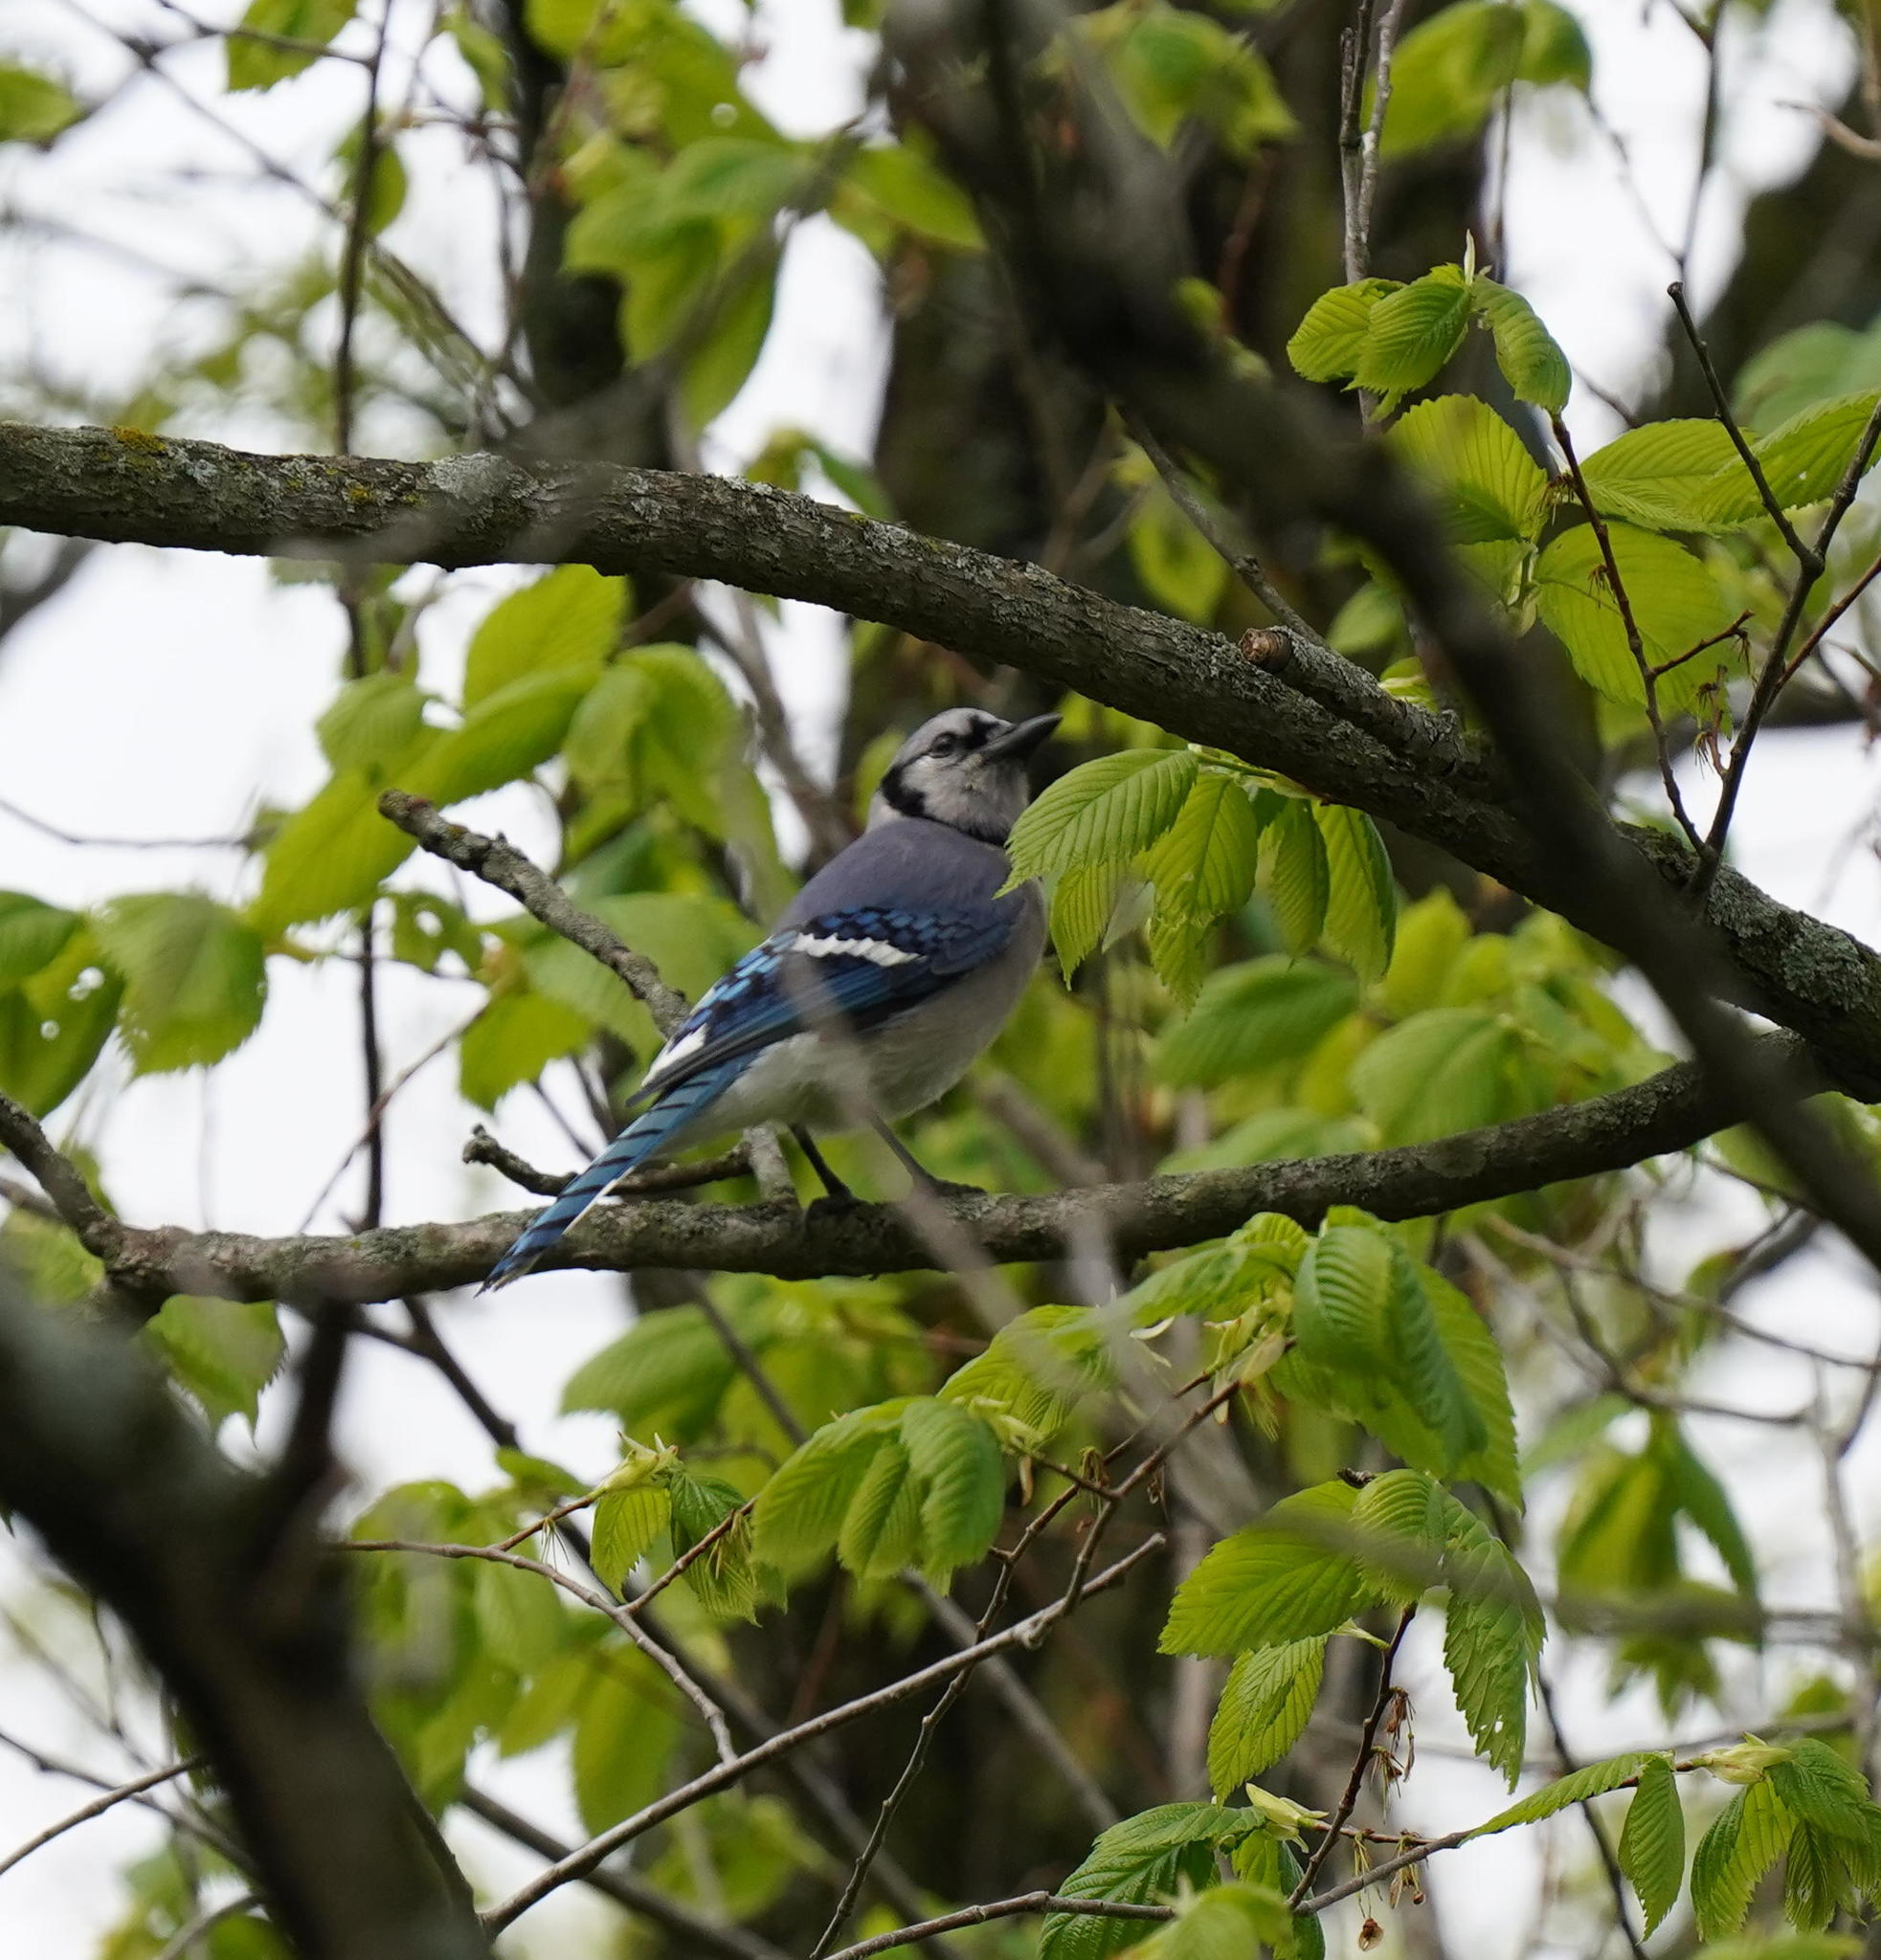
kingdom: Animalia
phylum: Chordata
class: Aves
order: Passeriformes
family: Corvidae
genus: Cyanocitta
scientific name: Cyanocitta cristata
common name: Blue jay
